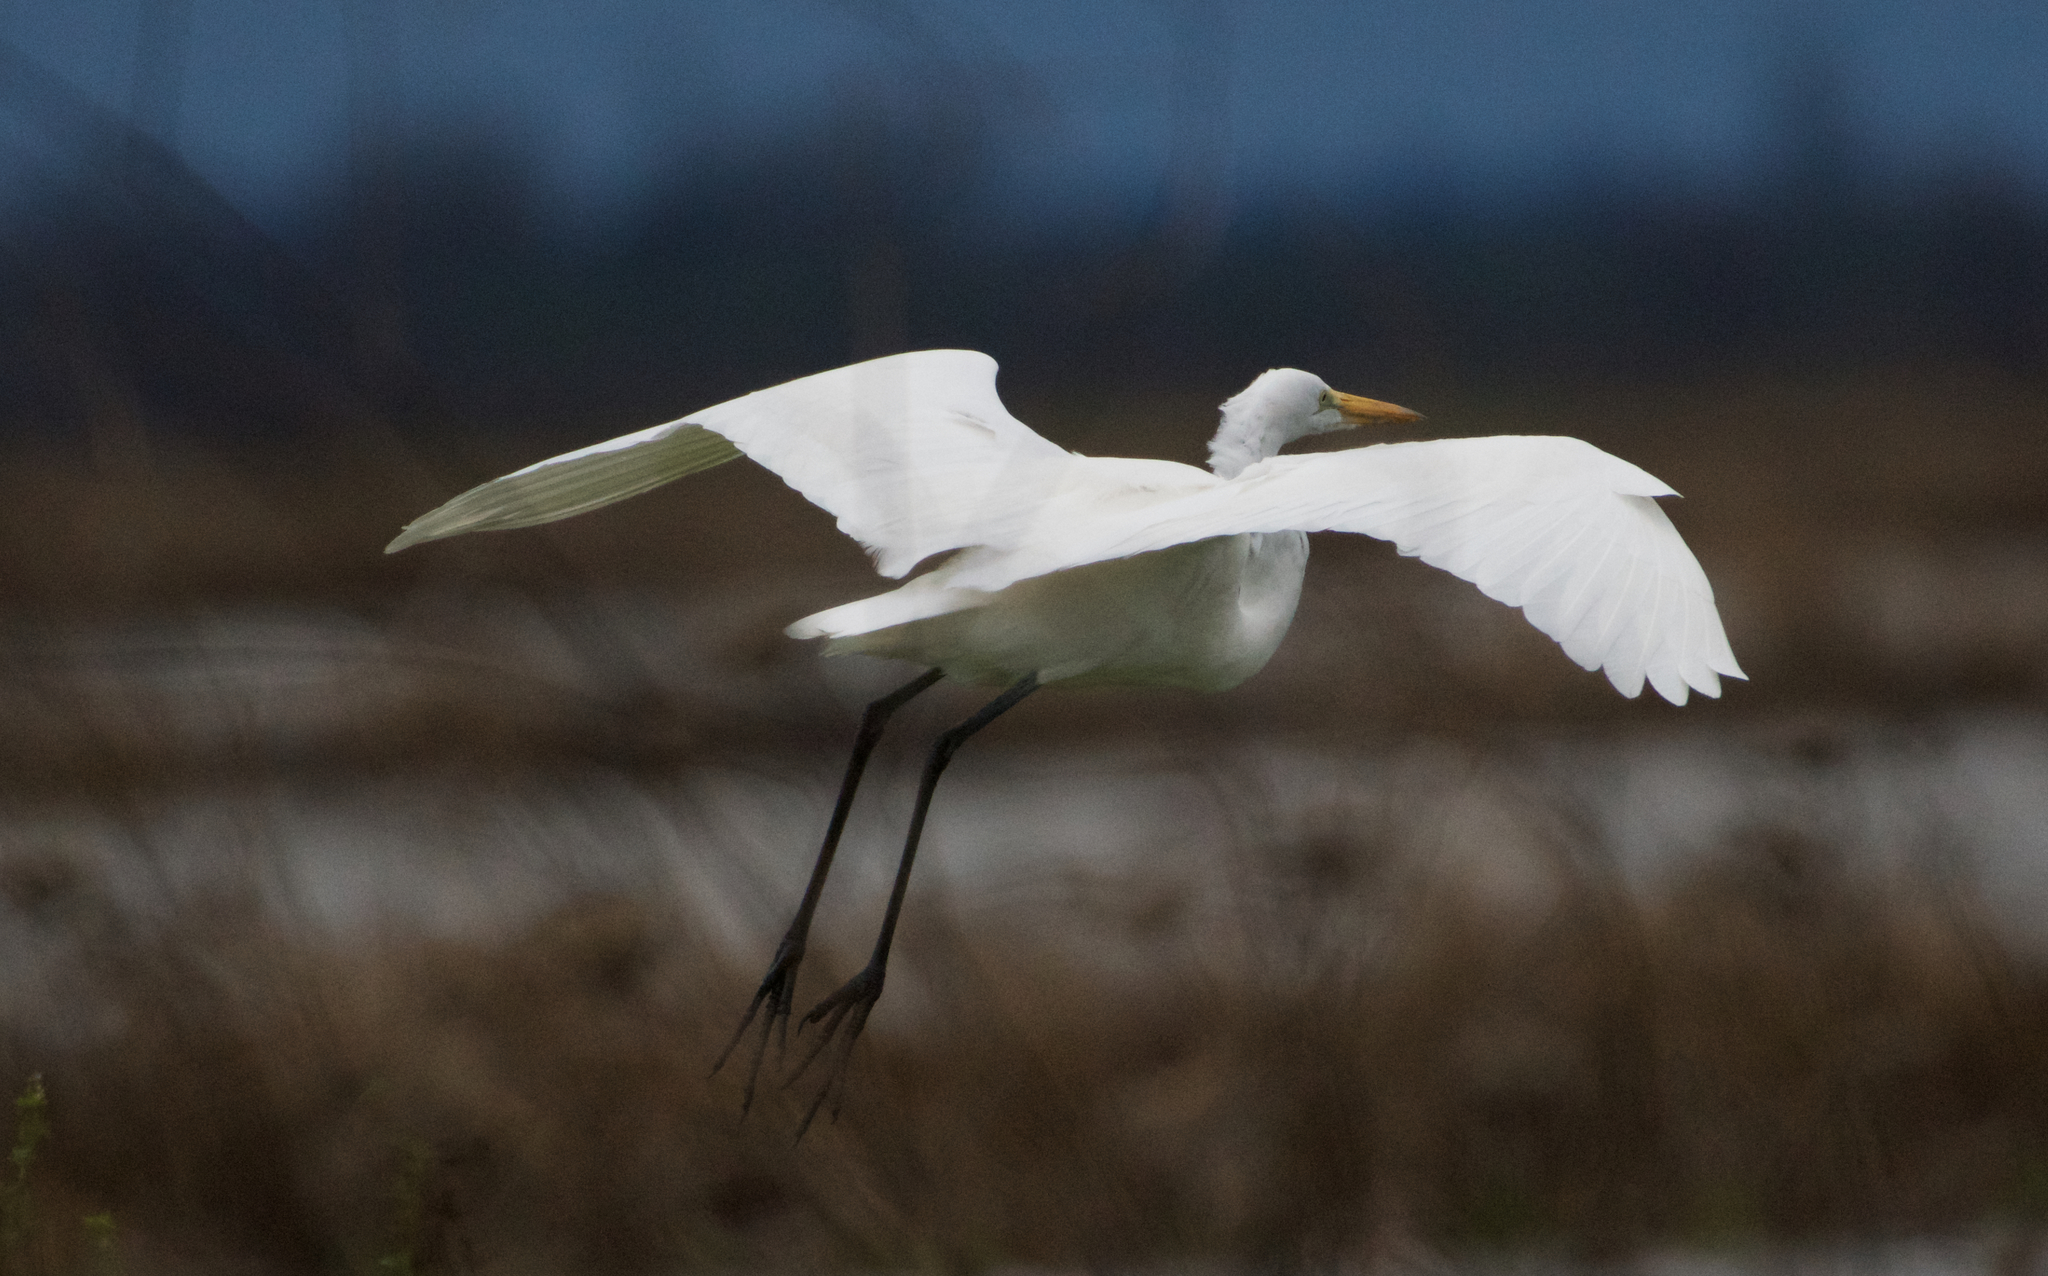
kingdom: Animalia
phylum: Chordata
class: Aves
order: Pelecaniformes
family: Ardeidae
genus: Ardea
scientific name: Ardea alba
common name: Great egret
